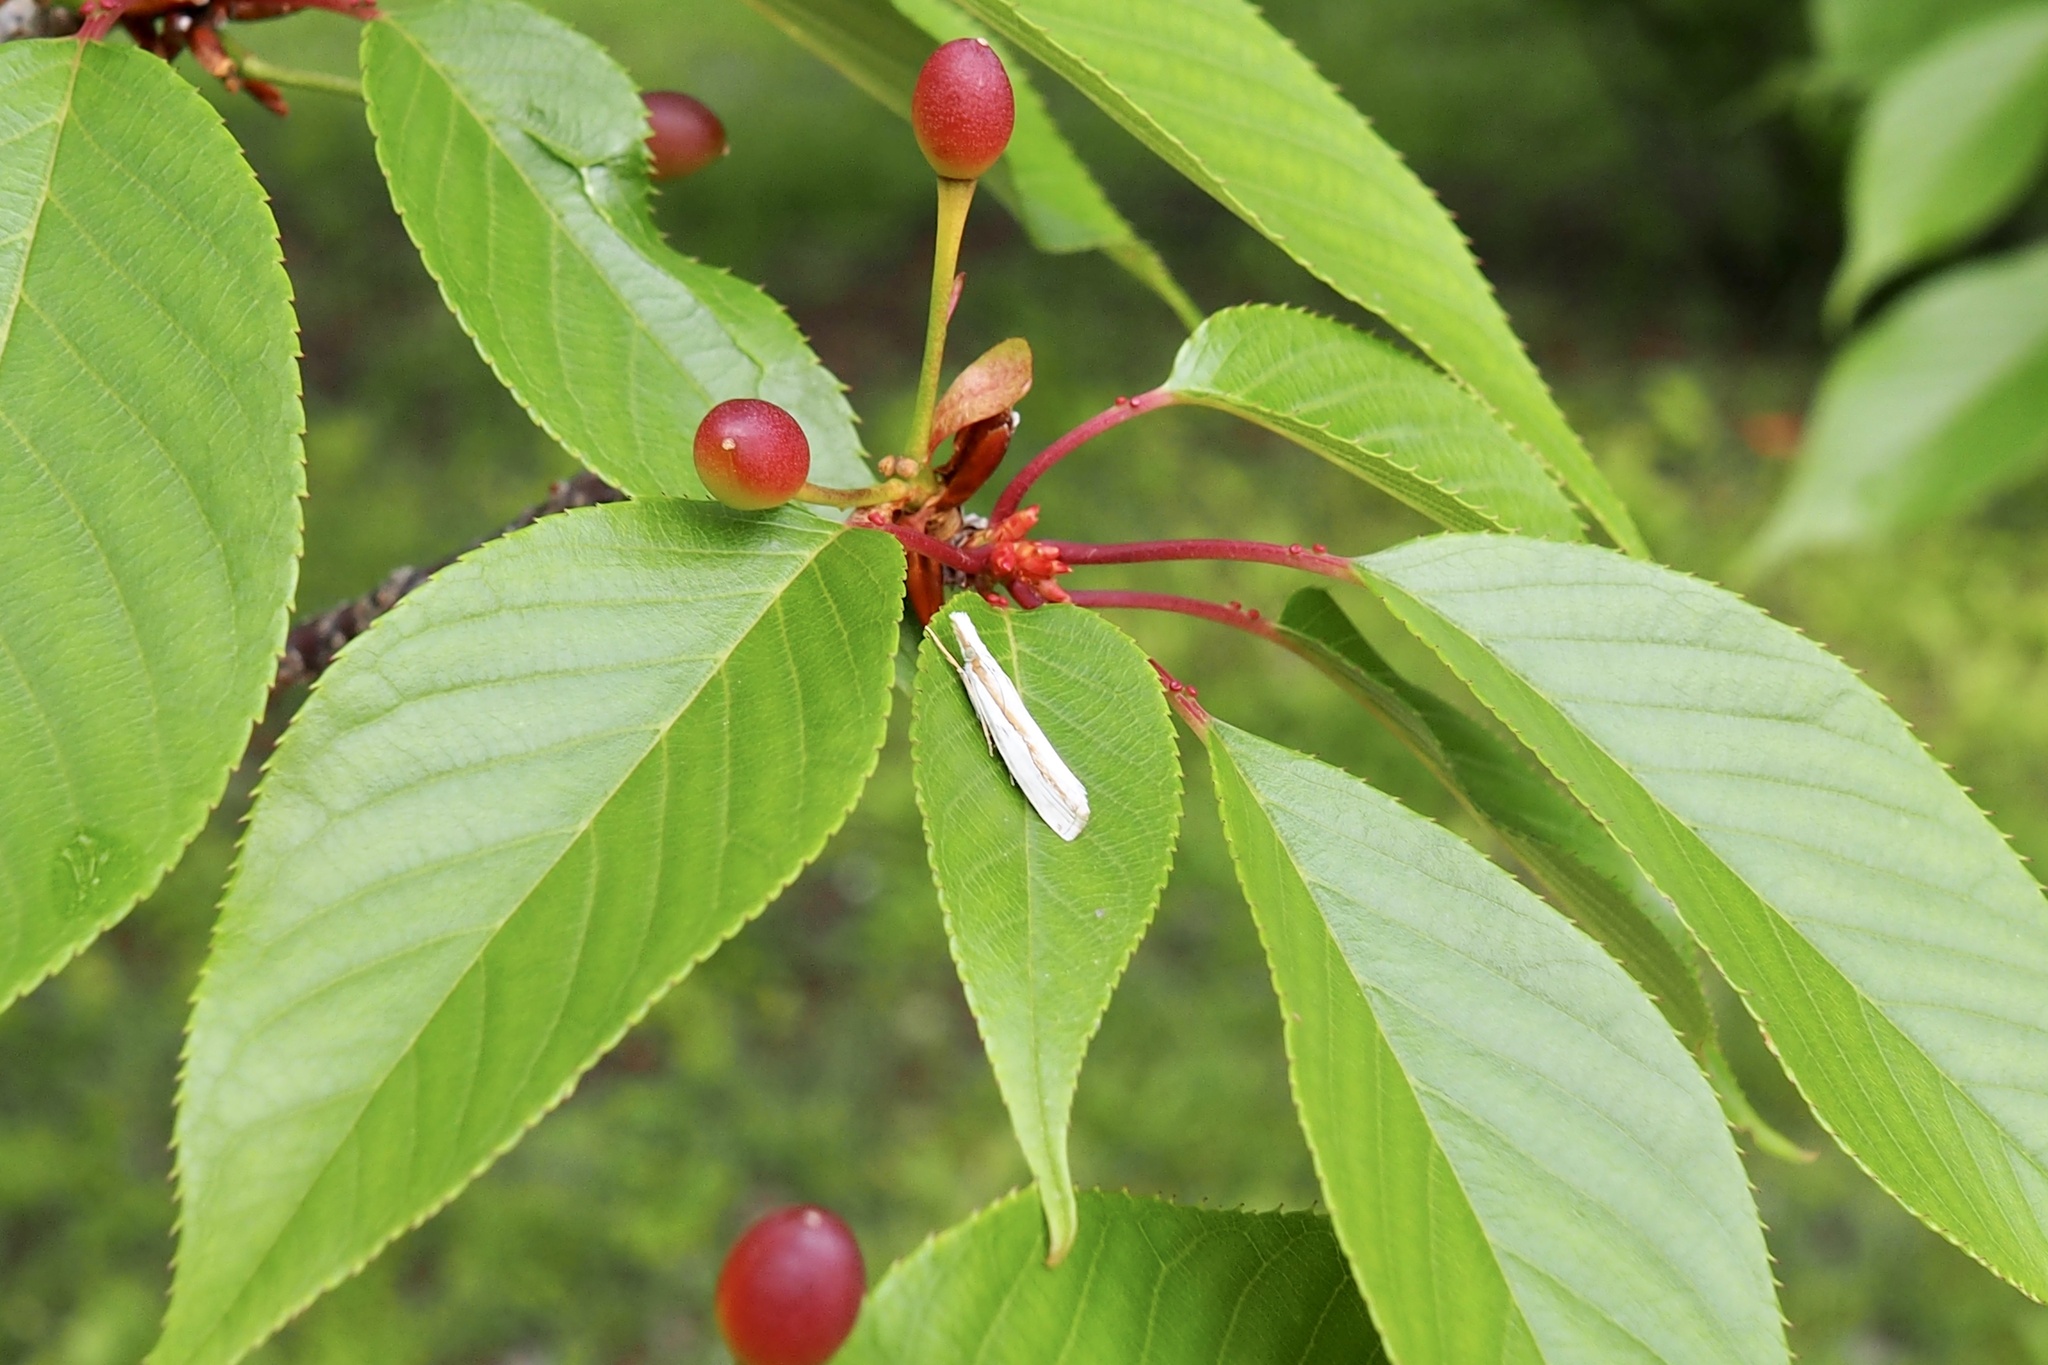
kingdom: Animalia
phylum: Arthropoda
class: Insecta
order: Lepidoptera
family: Crambidae
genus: Crambus
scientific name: Crambus virgatellus
